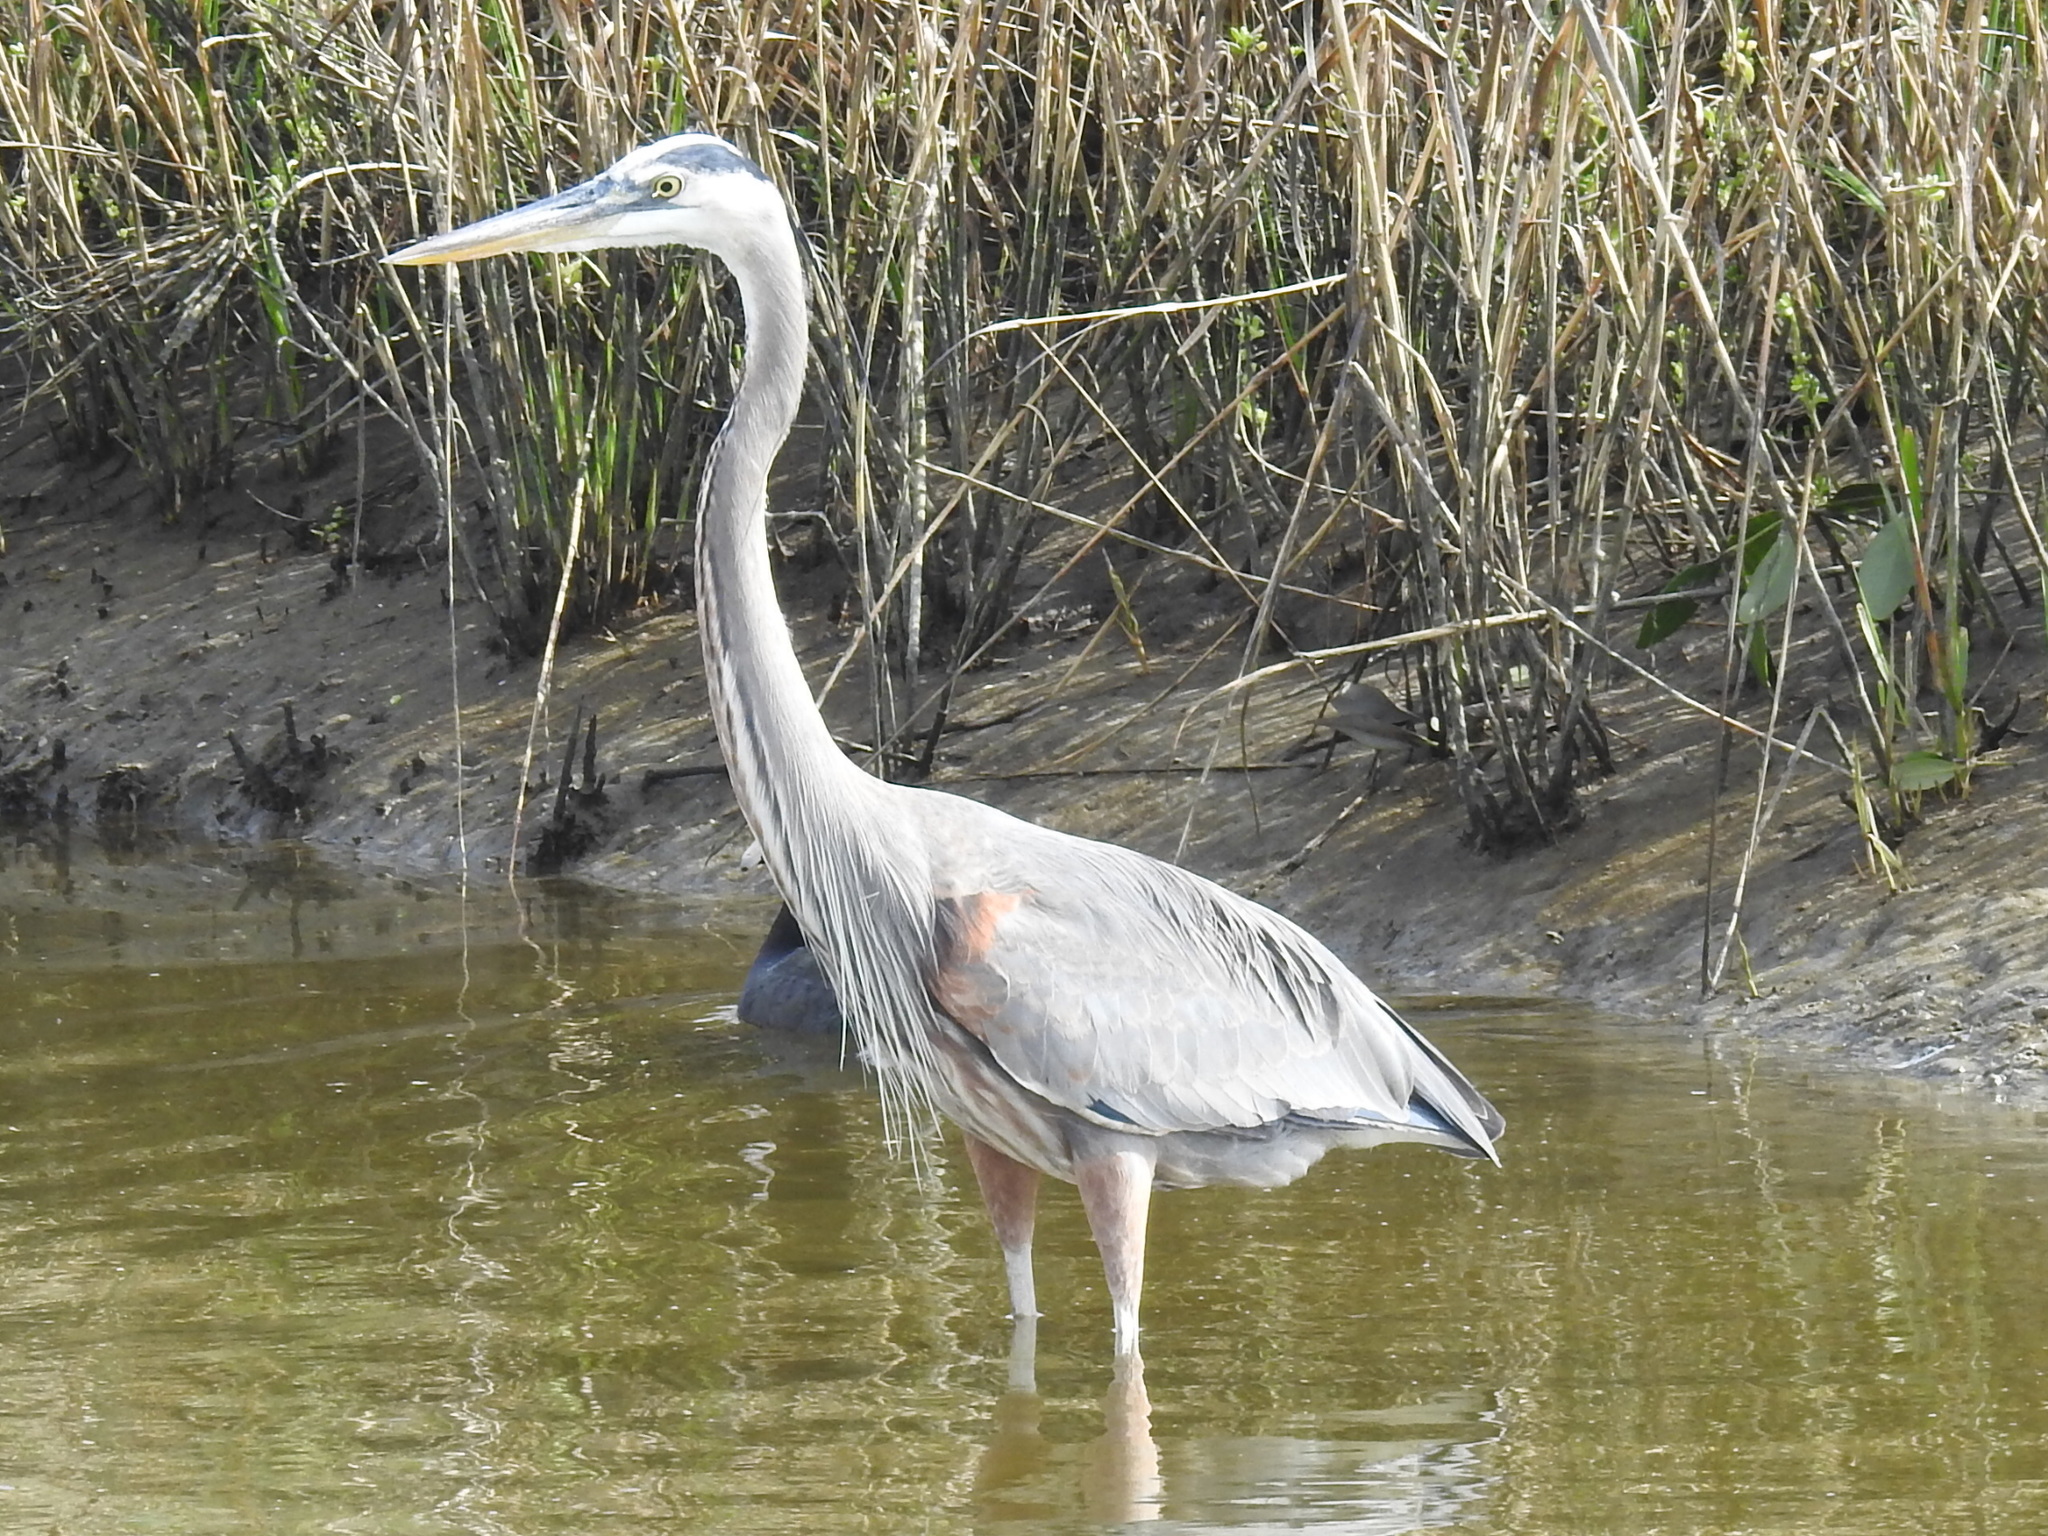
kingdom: Animalia
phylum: Chordata
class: Aves
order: Pelecaniformes
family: Ardeidae
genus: Ardea
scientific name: Ardea herodias
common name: Great blue heron
